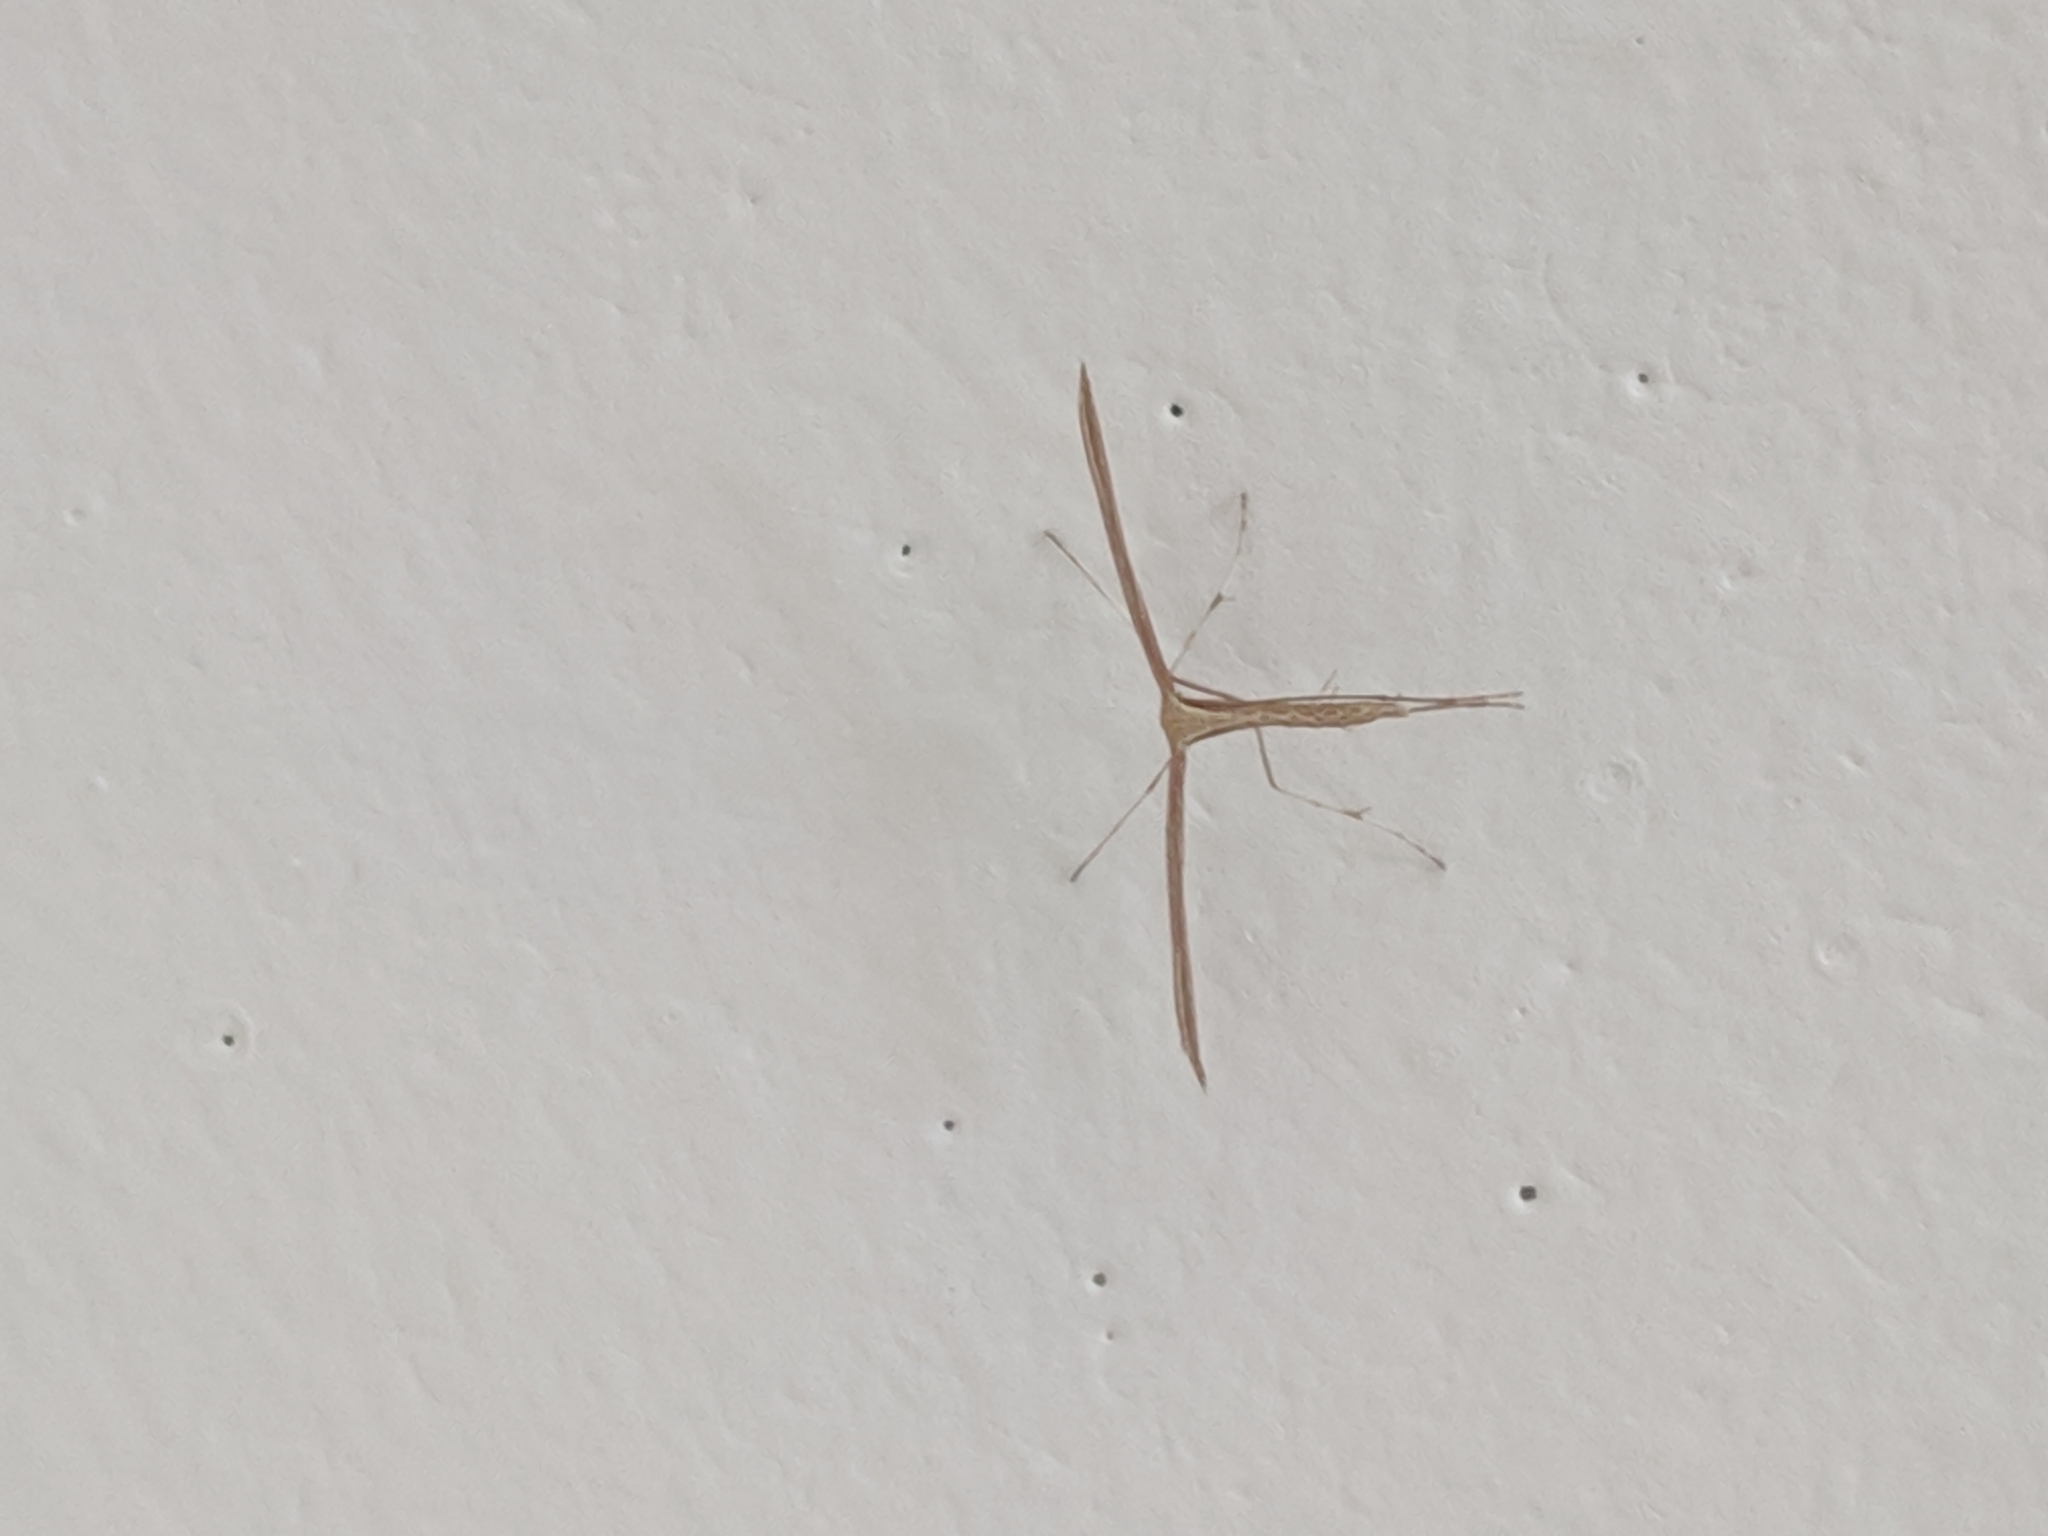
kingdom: Animalia
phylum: Arthropoda
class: Insecta
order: Lepidoptera
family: Pterophoridae
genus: Emmelina
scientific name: Emmelina monodactyla
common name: Common plume
